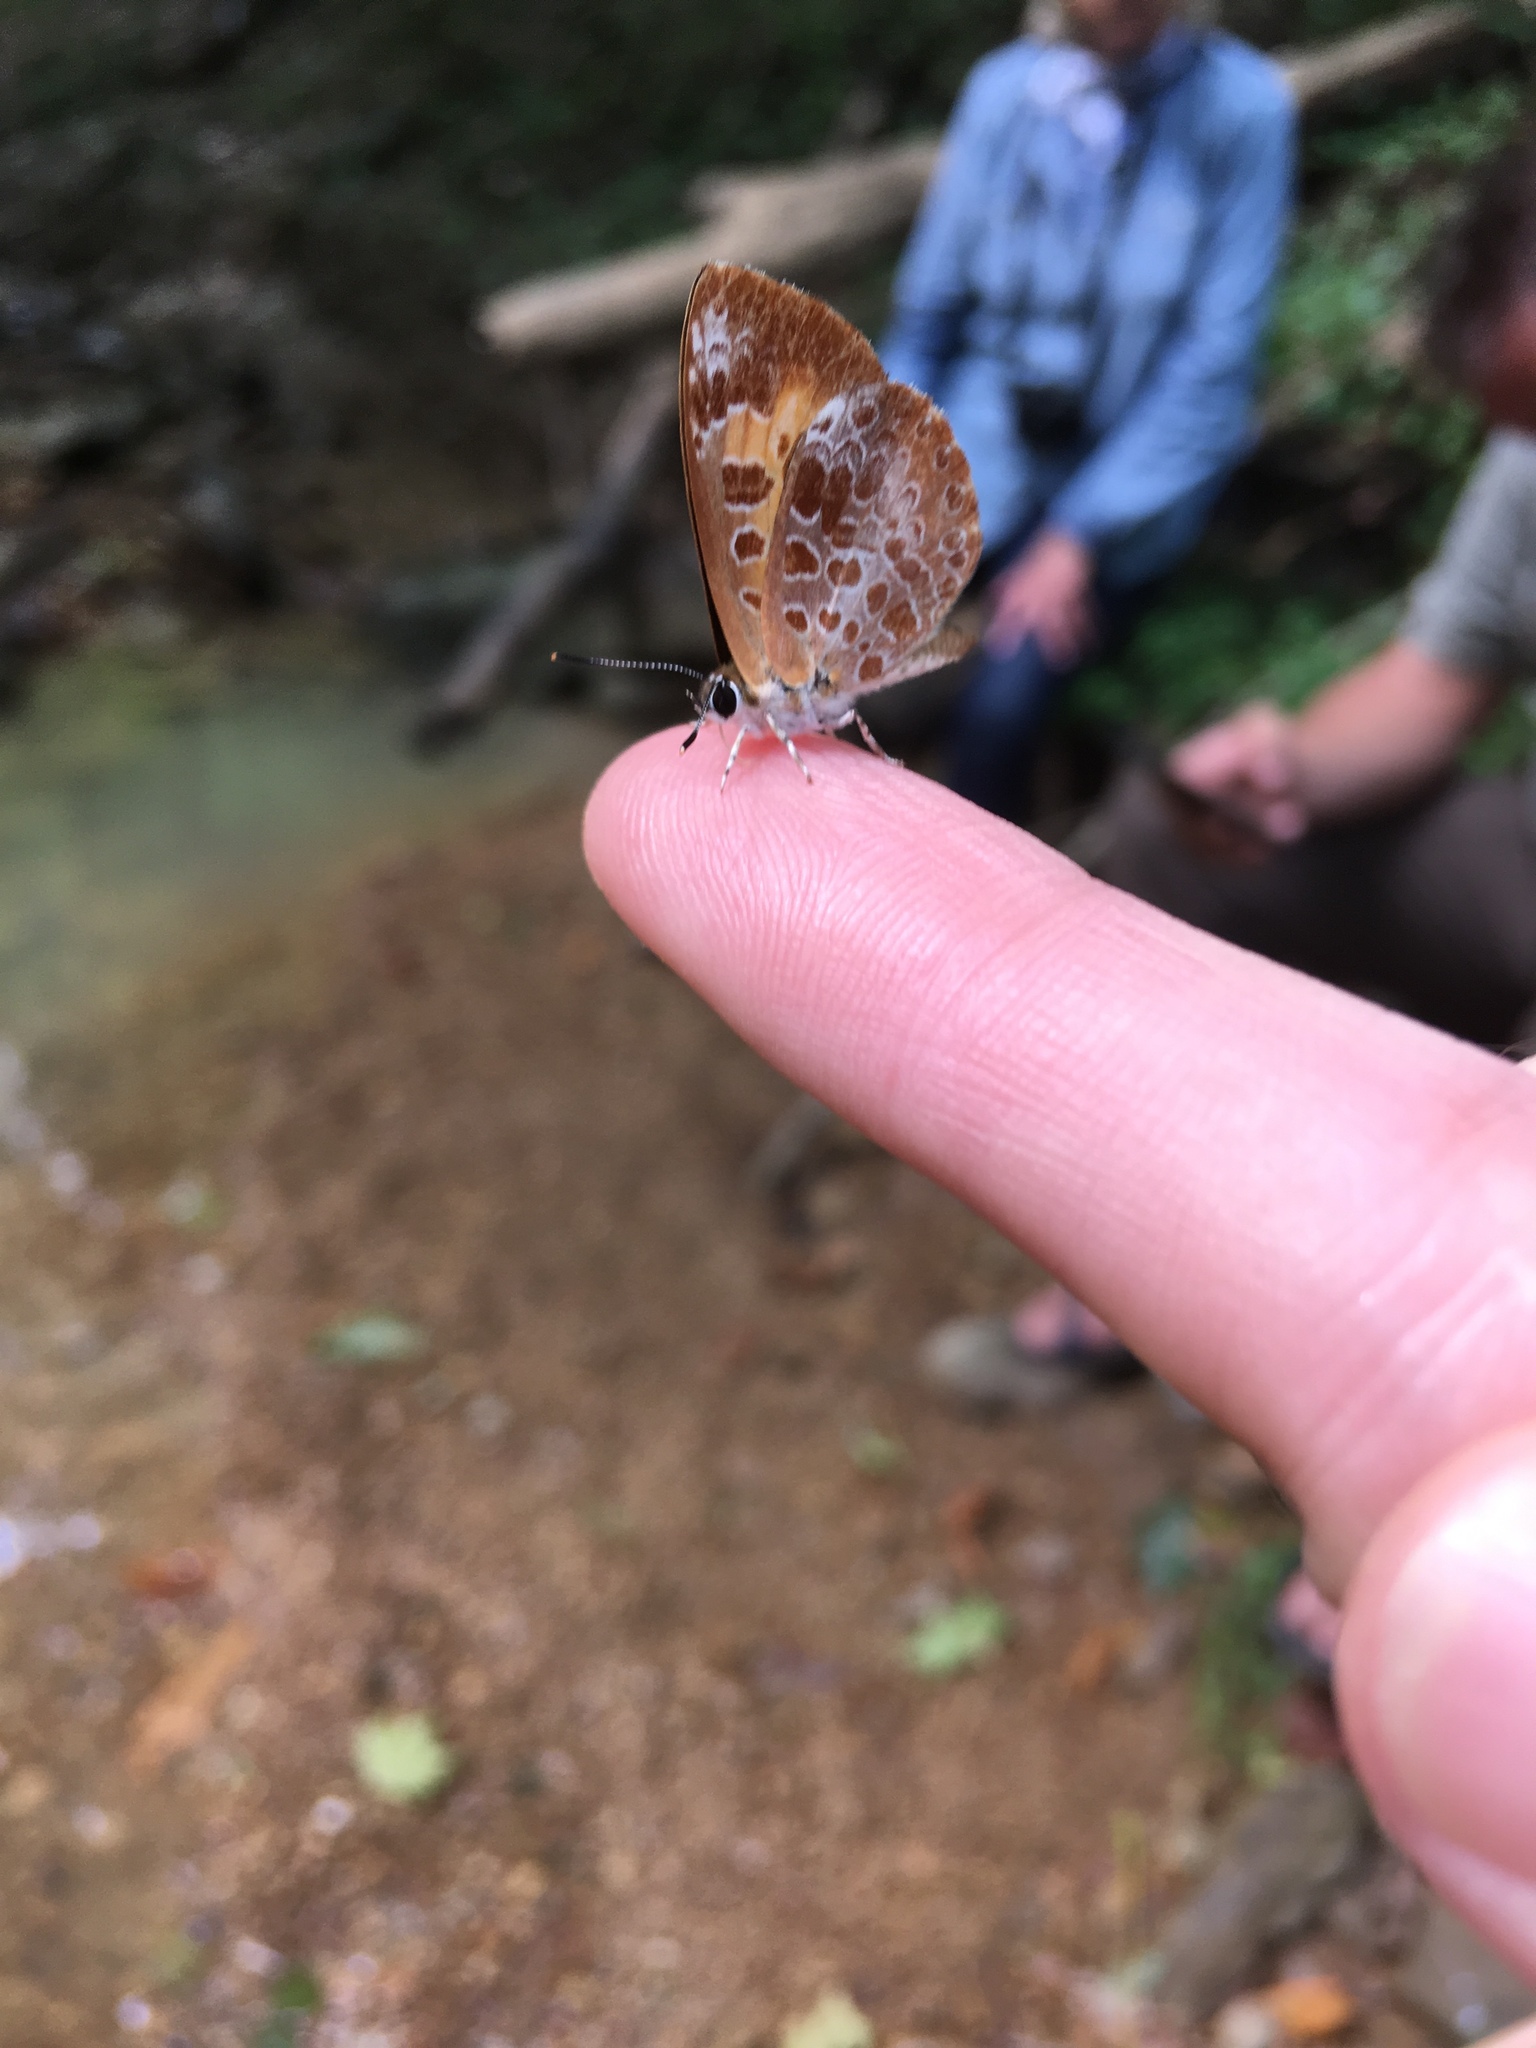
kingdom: Animalia
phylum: Arthropoda
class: Insecta
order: Lepidoptera
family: Lycaenidae
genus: Feniseca
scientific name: Feniseca tarquinius
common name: Harvester
